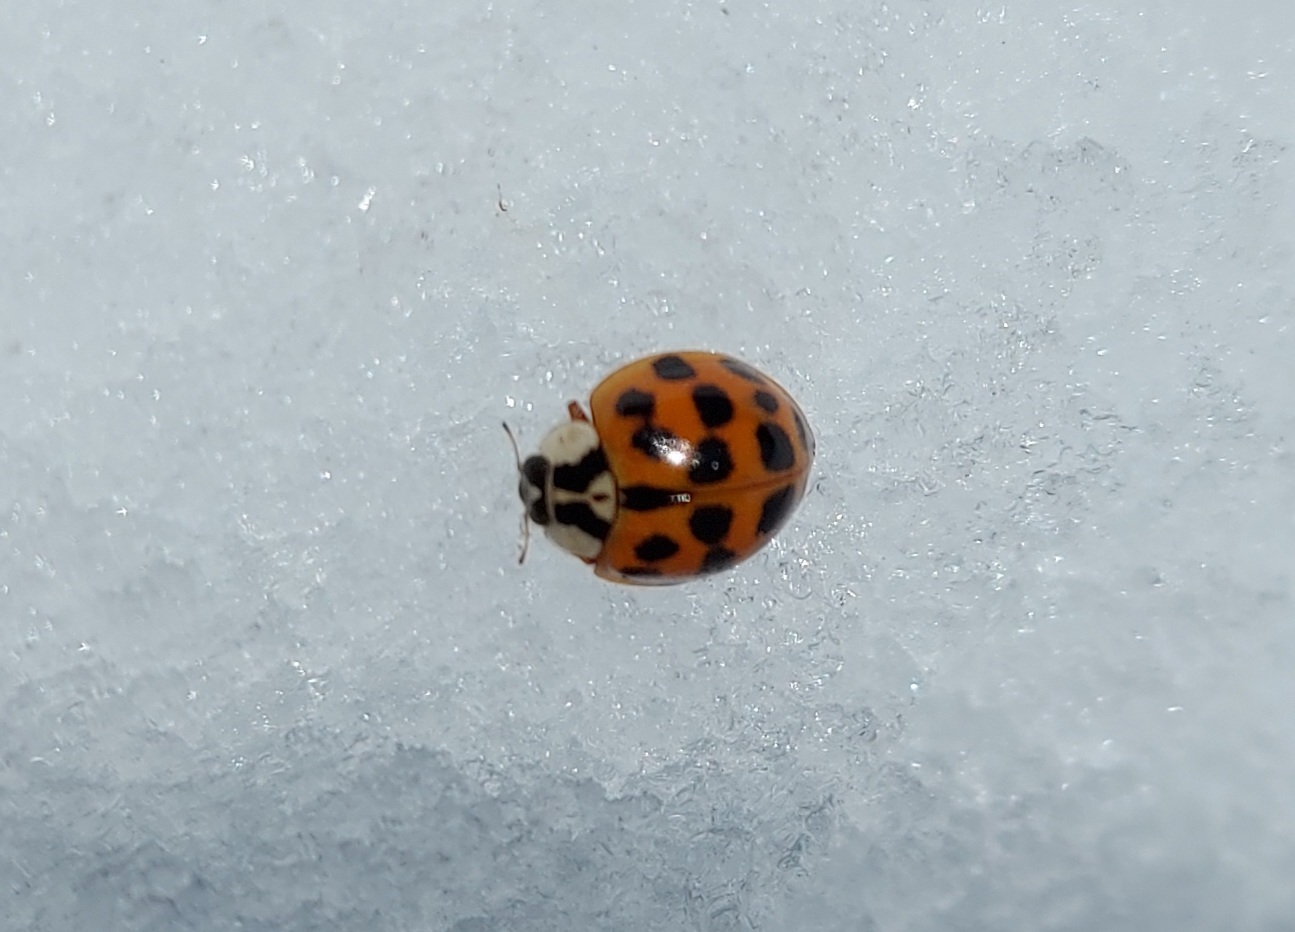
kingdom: Animalia
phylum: Arthropoda
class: Insecta
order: Coleoptera
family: Coccinellidae
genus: Harmonia
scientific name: Harmonia axyridis
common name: Harlequin ladybird
